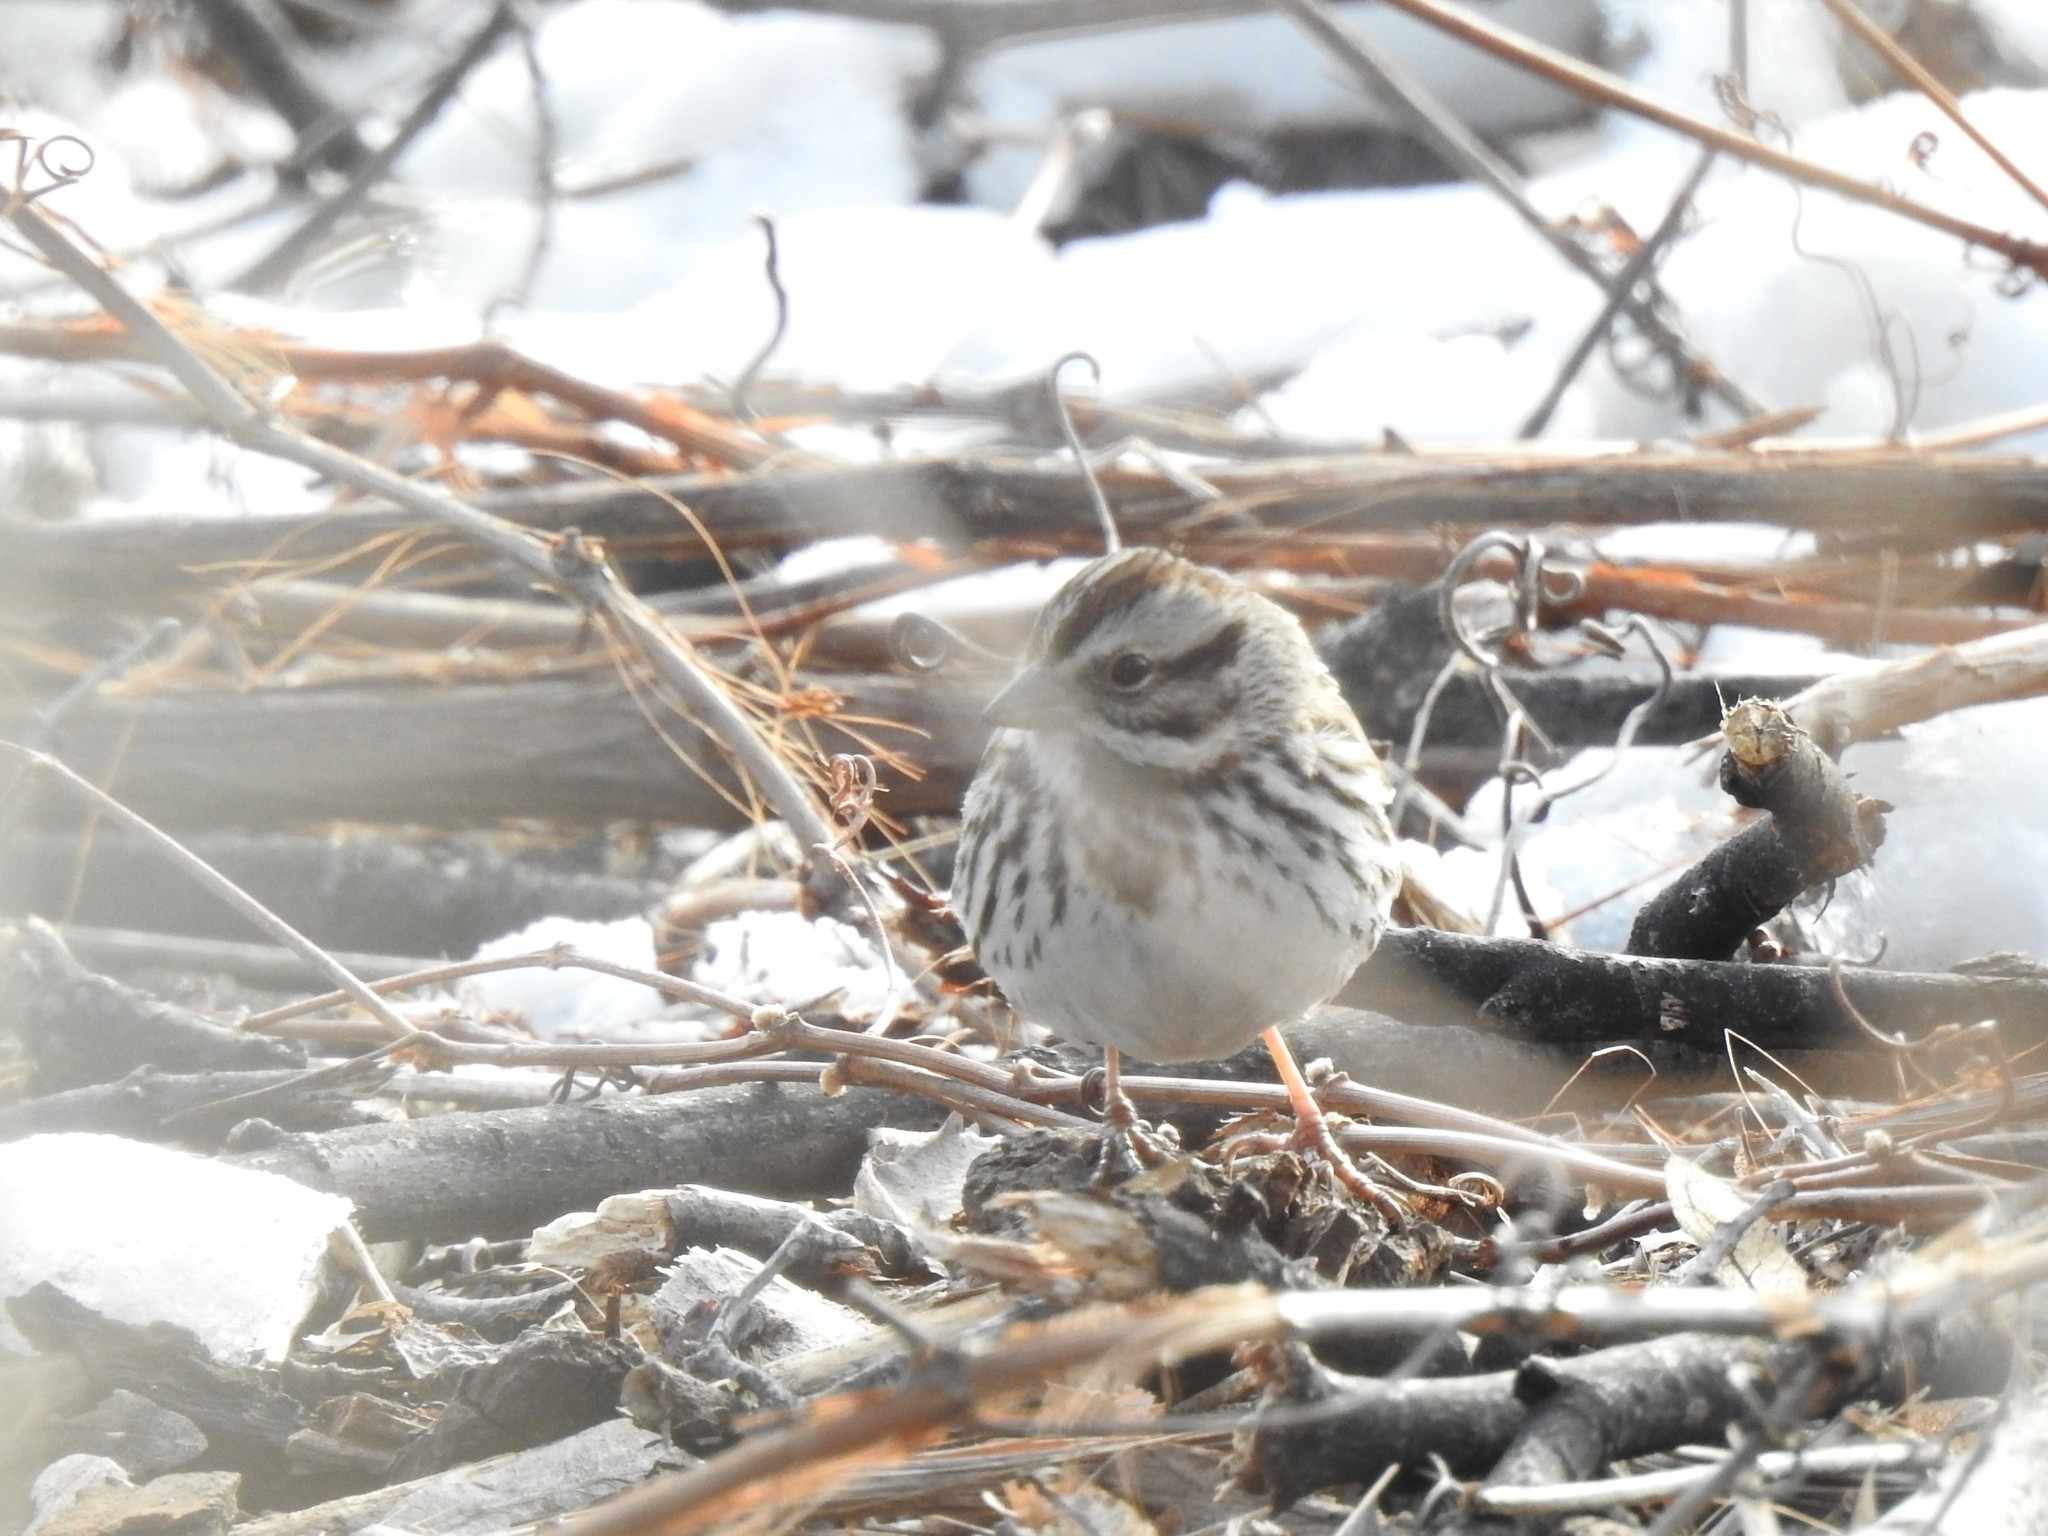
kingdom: Animalia
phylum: Chordata
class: Aves
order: Passeriformes
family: Passerellidae
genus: Melospiza
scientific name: Melospiza melodia
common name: Song sparrow
